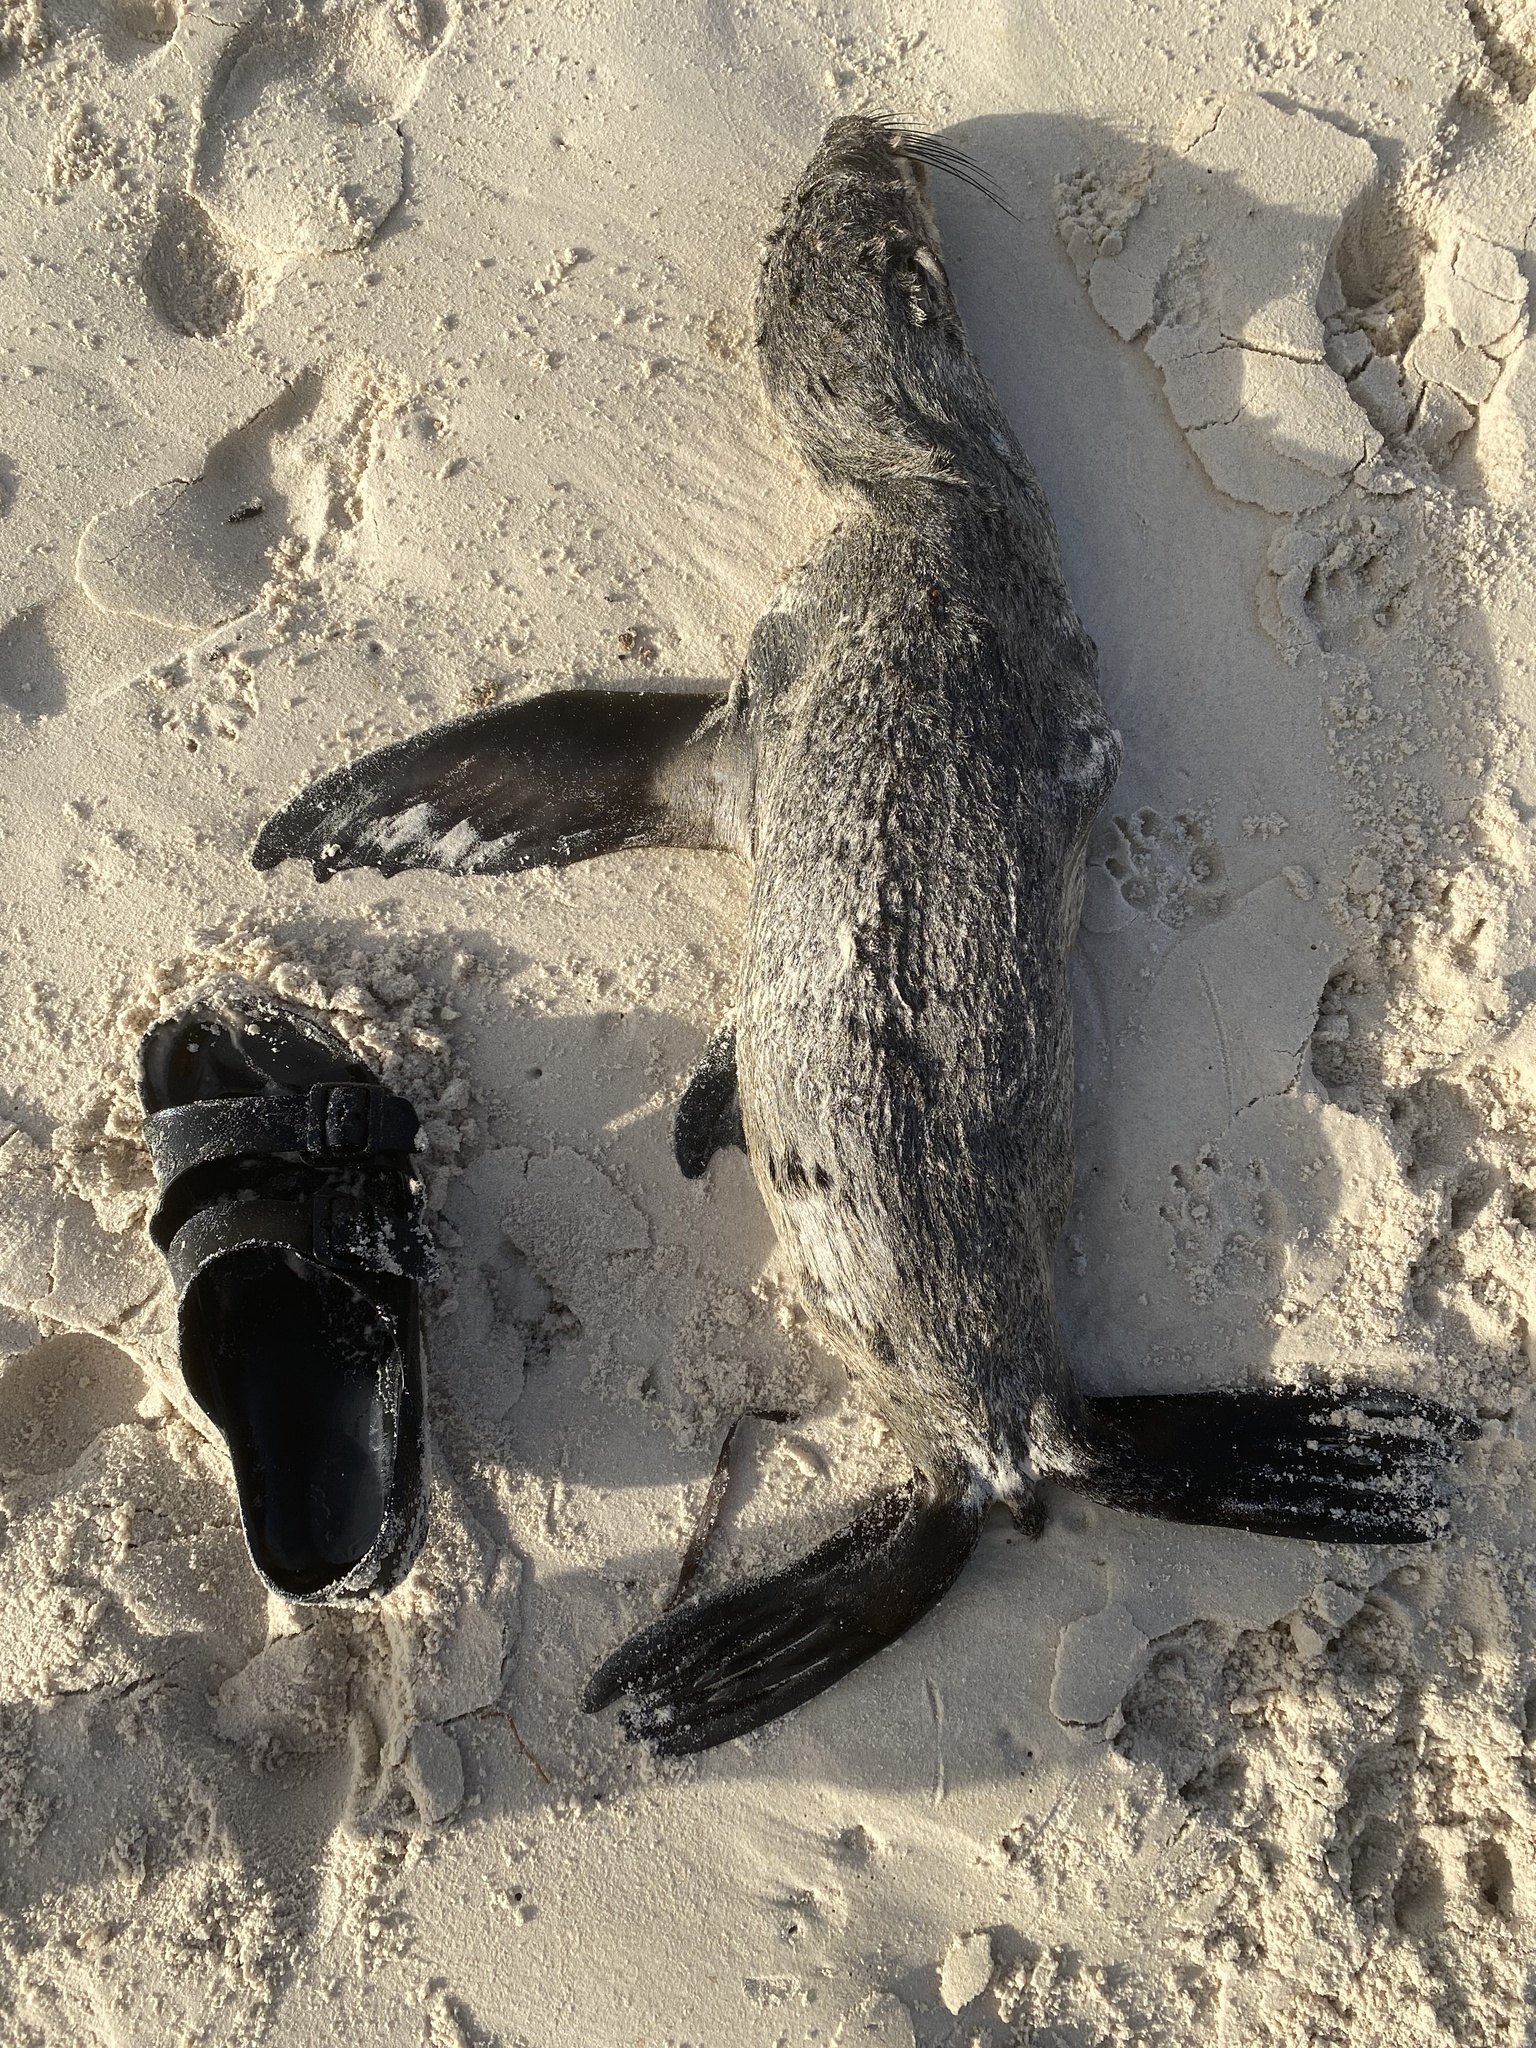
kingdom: Animalia
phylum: Chordata
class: Mammalia
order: Carnivora
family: Otariidae
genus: Arctocephalus
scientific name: Arctocephalus pusillus
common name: Brown fur seal
